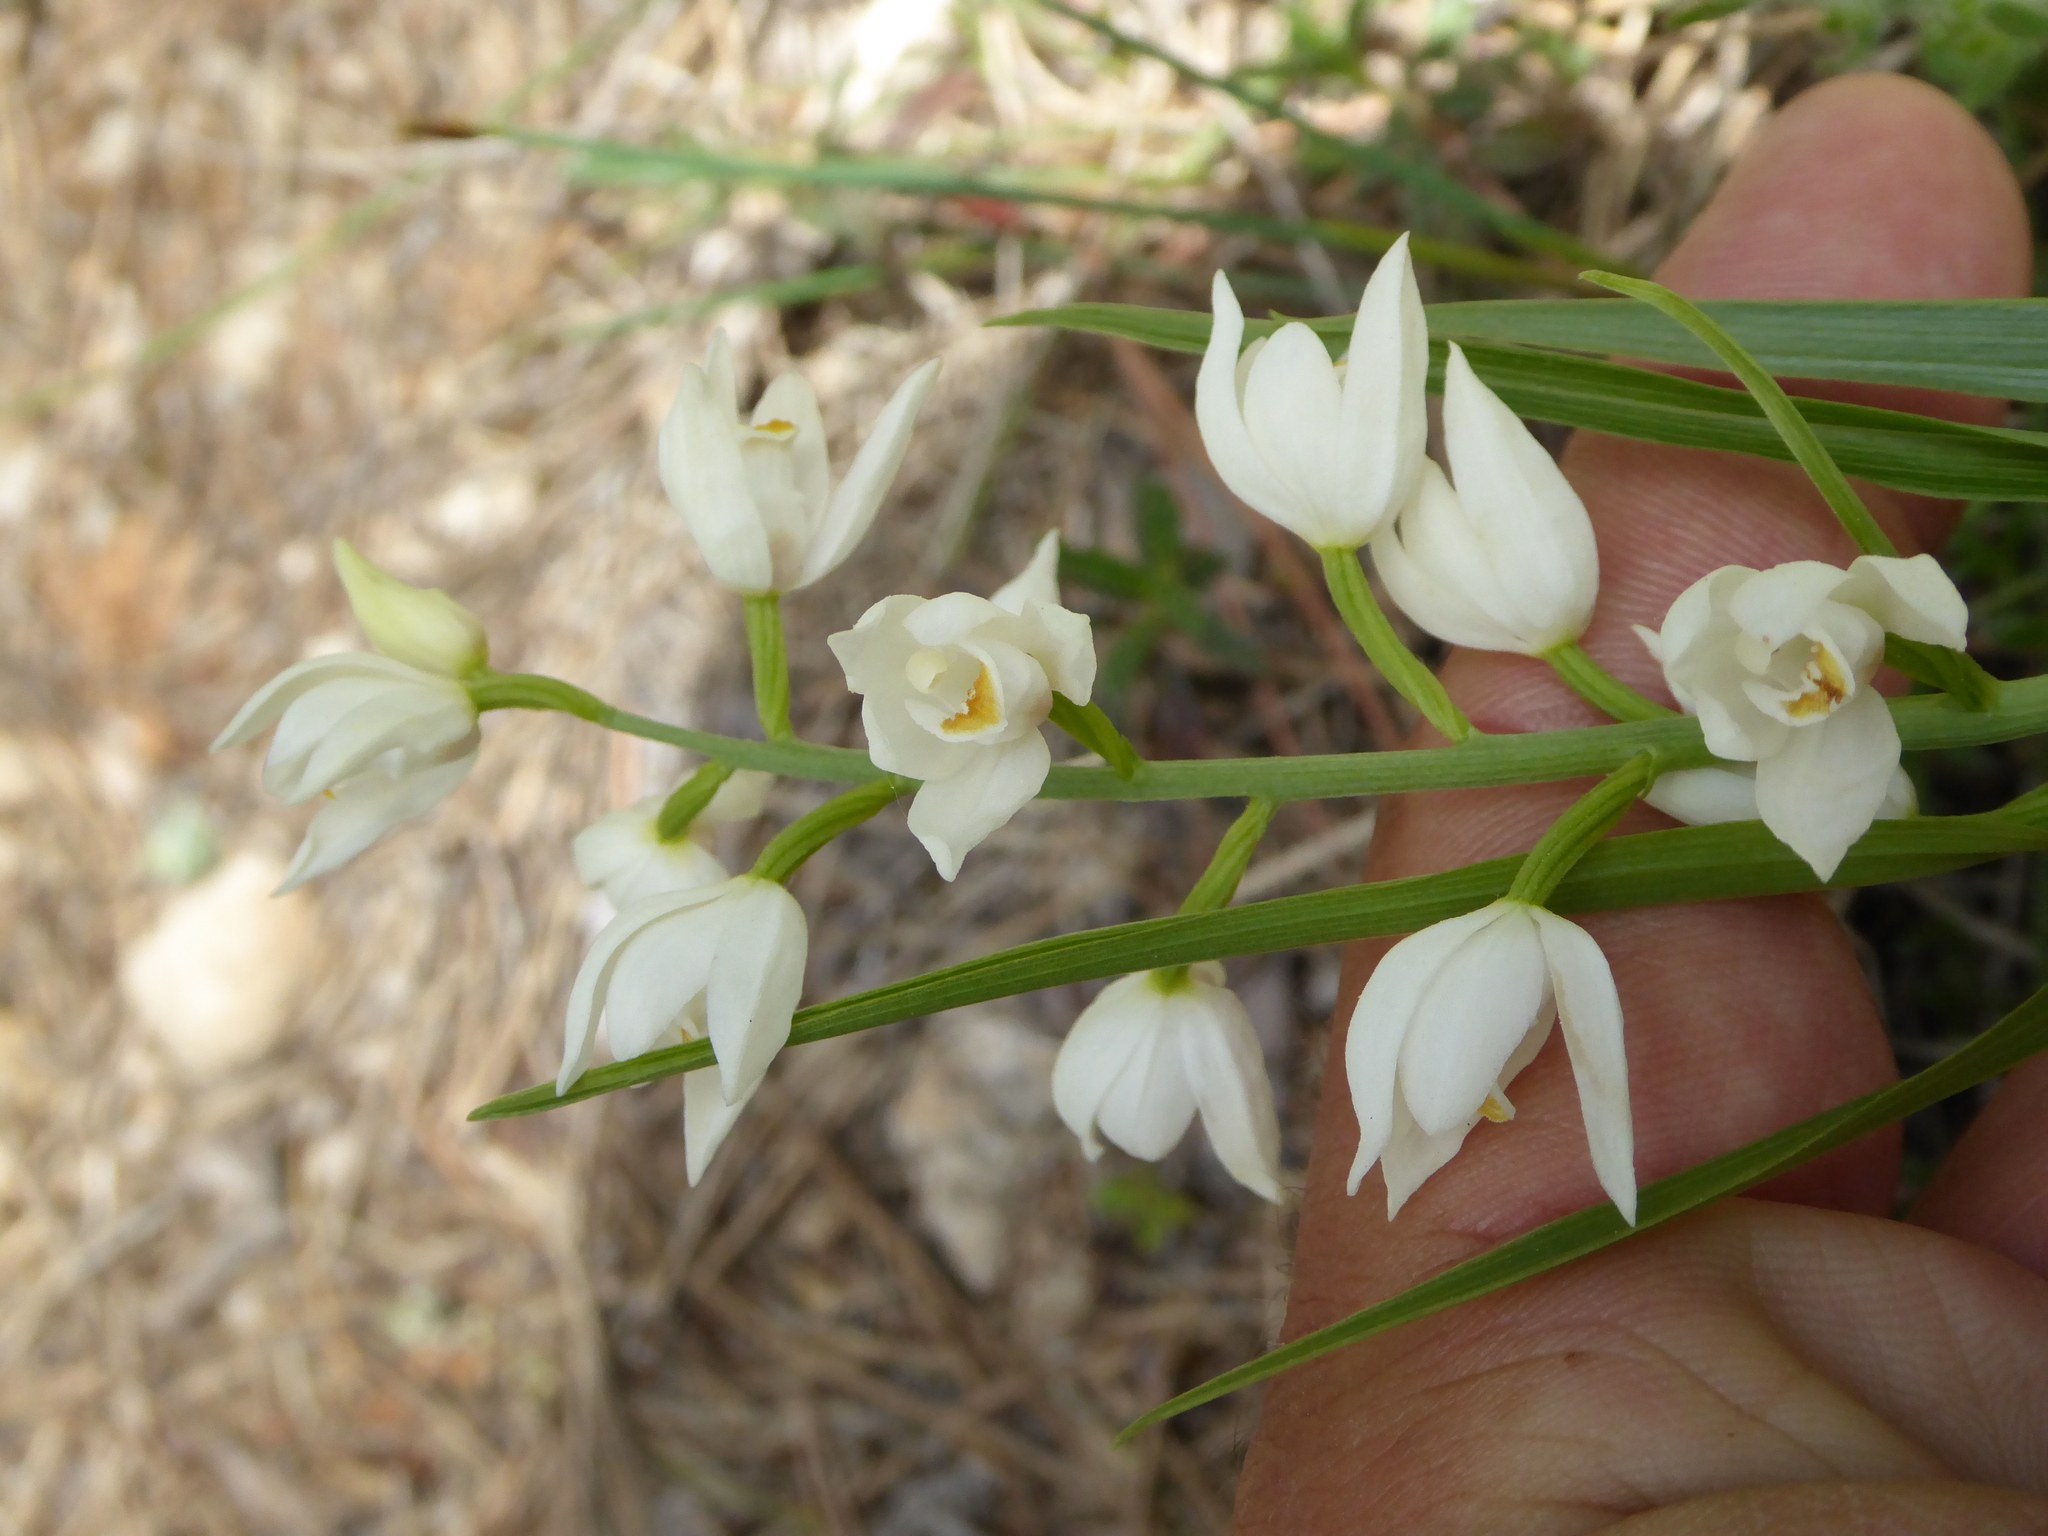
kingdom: Plantae
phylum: Tracheophyta
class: Liliopsida
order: Asparagales
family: Orchidaceae
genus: Cephalanthera
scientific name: Cephalanthera longifolia
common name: Narrow-leaved helleborine
